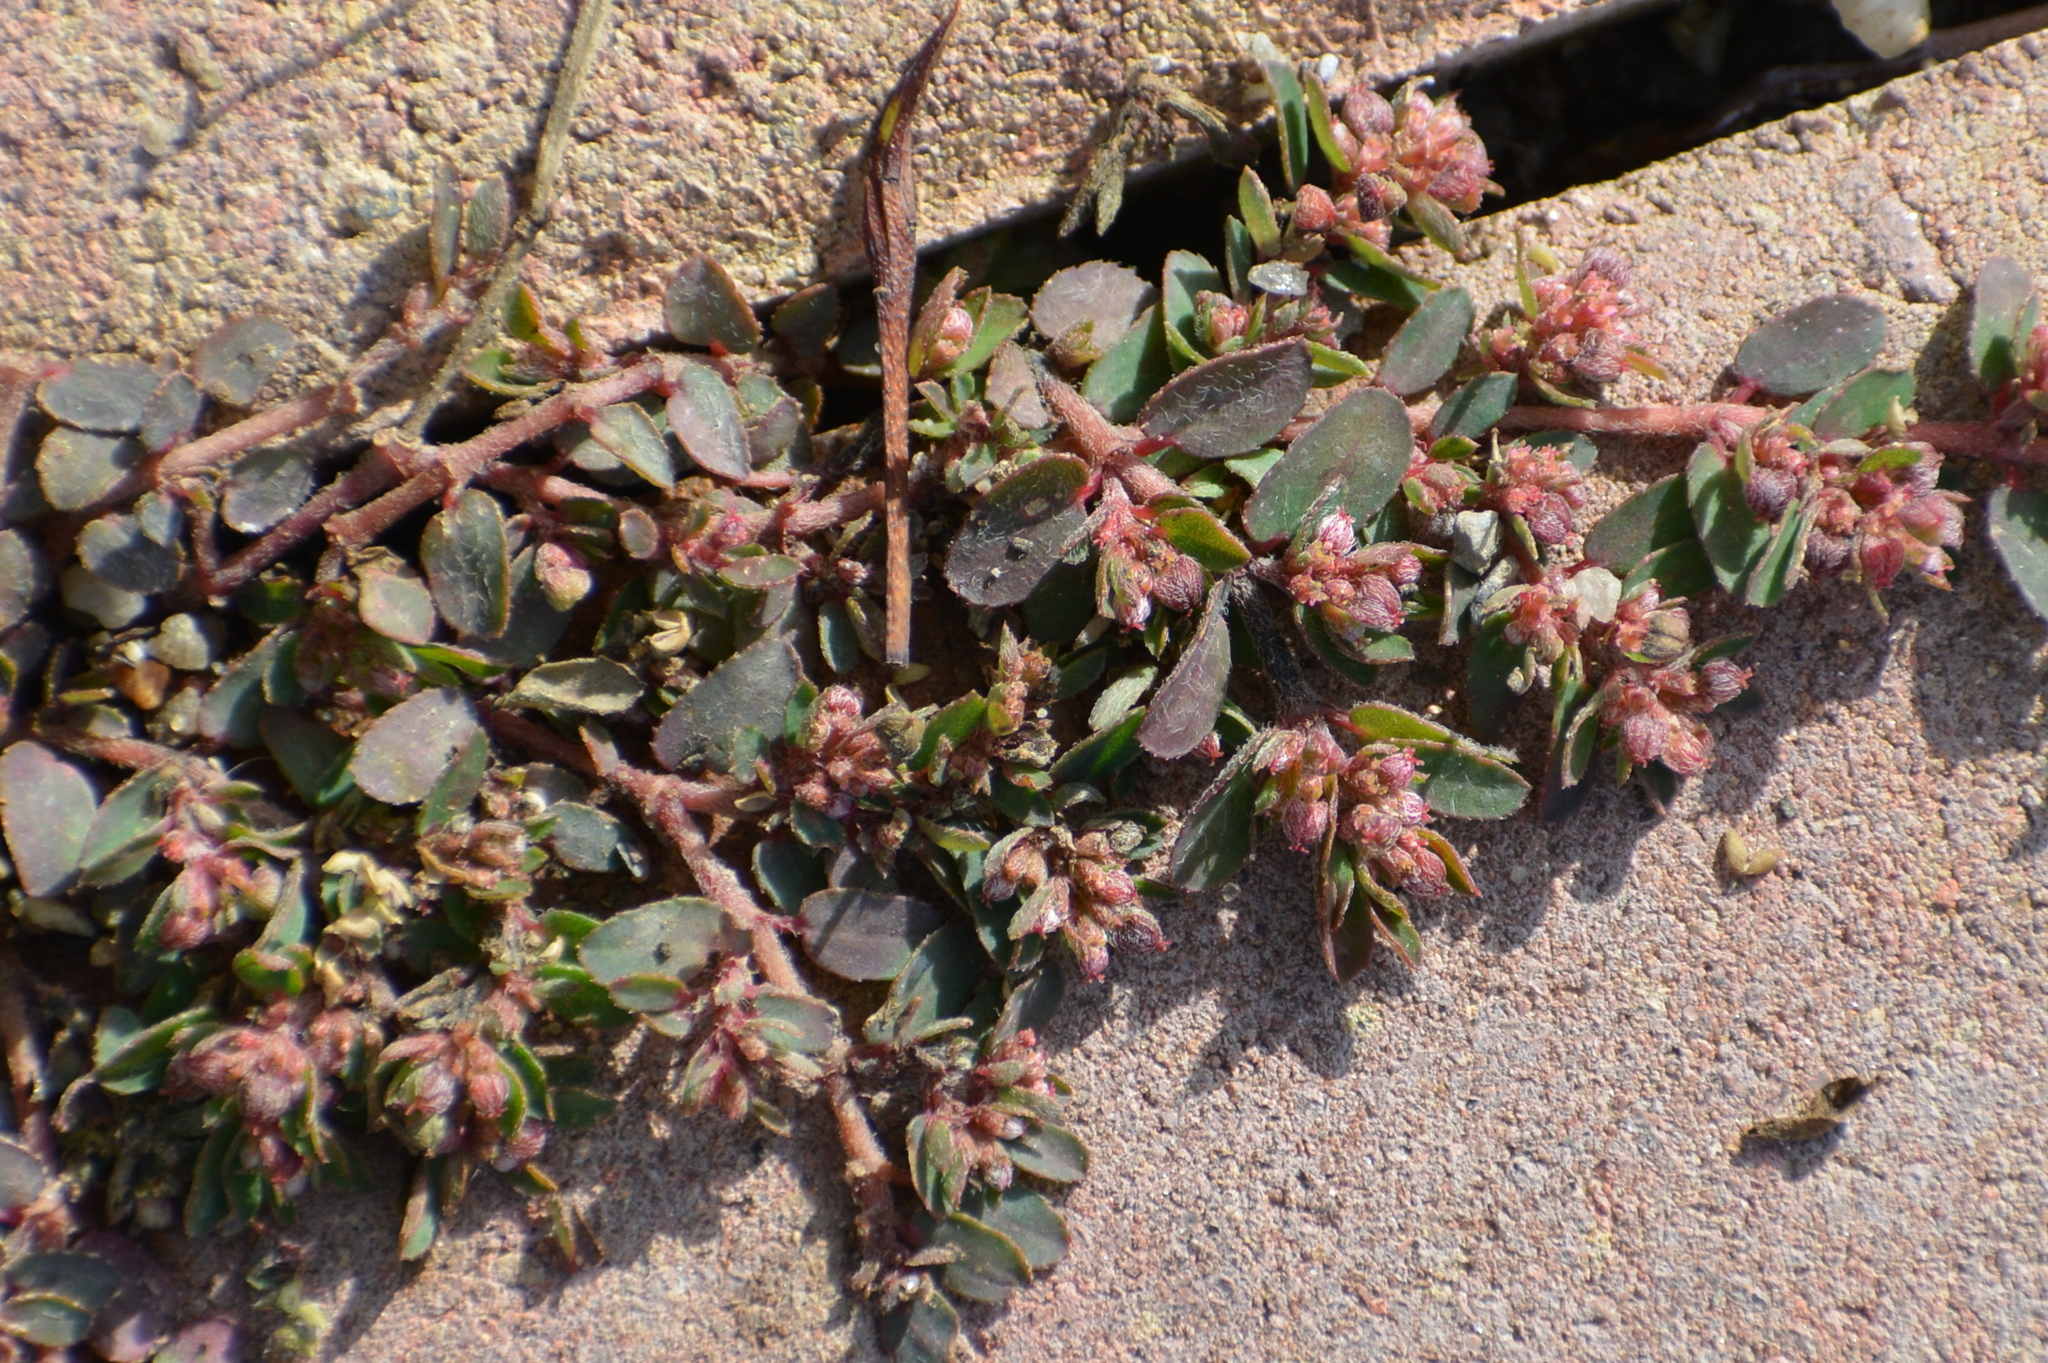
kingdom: Plantae
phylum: Tracheophyta
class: Magnoliopsida
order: Malpighiales
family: Euphorbiaceae
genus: Euphorbia
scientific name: Euphorbia maculata
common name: Spotted spurge
